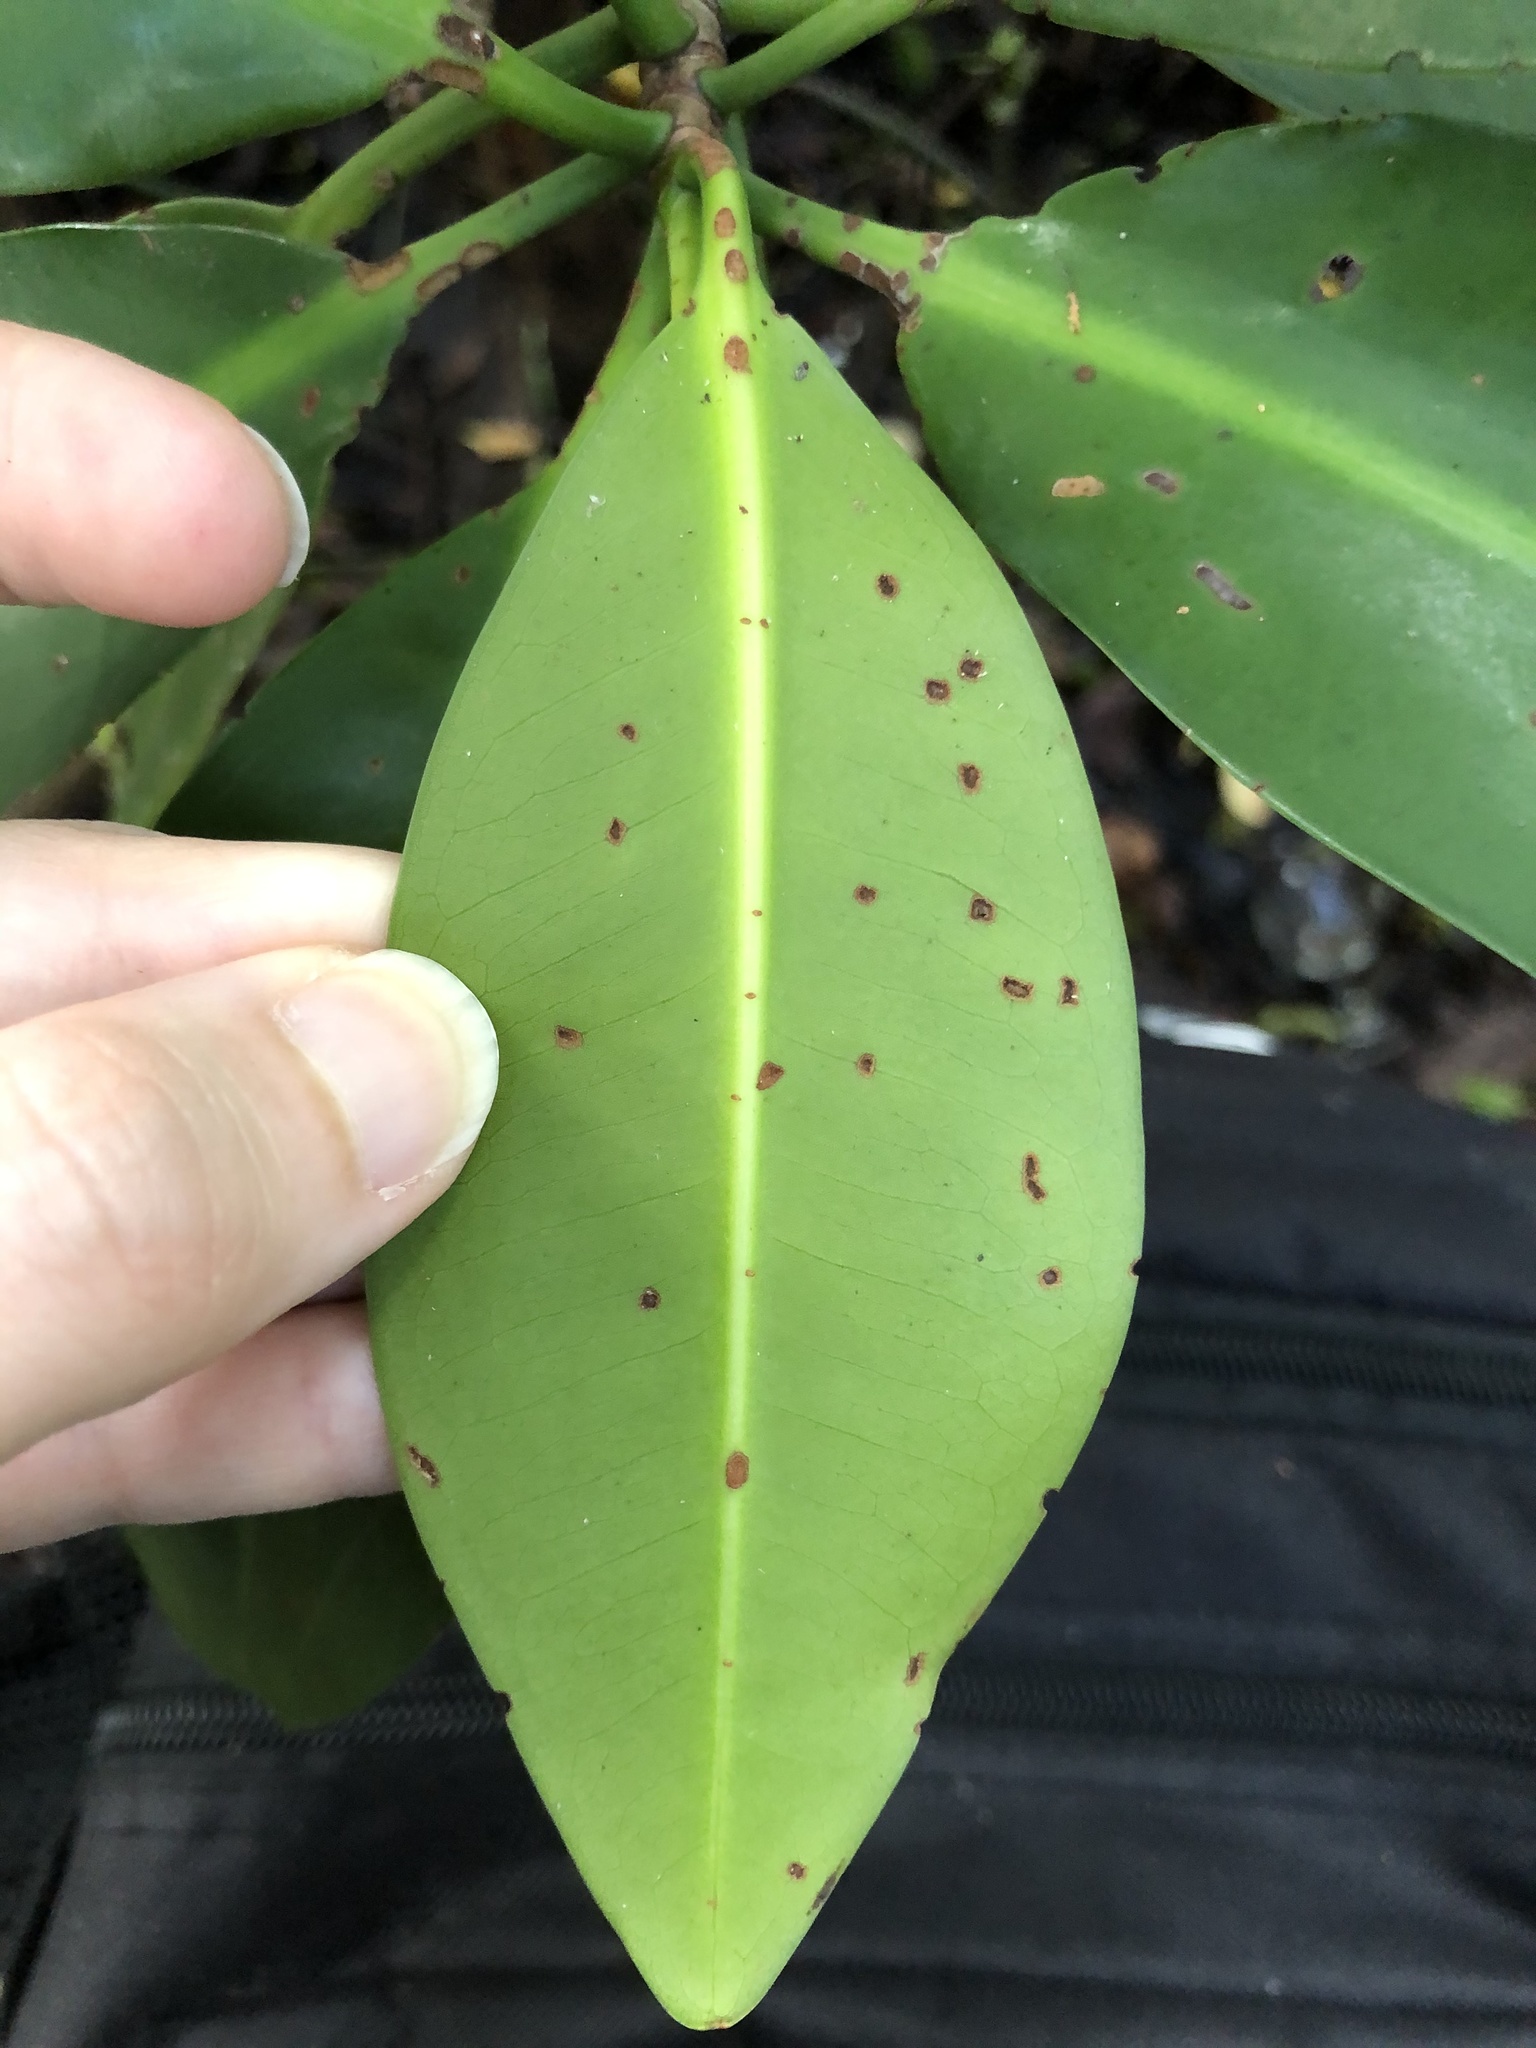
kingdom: Plantae
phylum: Tracheophyta
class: Magnoliopsida
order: Malpighiales
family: Rhizophoraceae
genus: Rhizophora
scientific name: Rhizophora mangle
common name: Red mangrove
